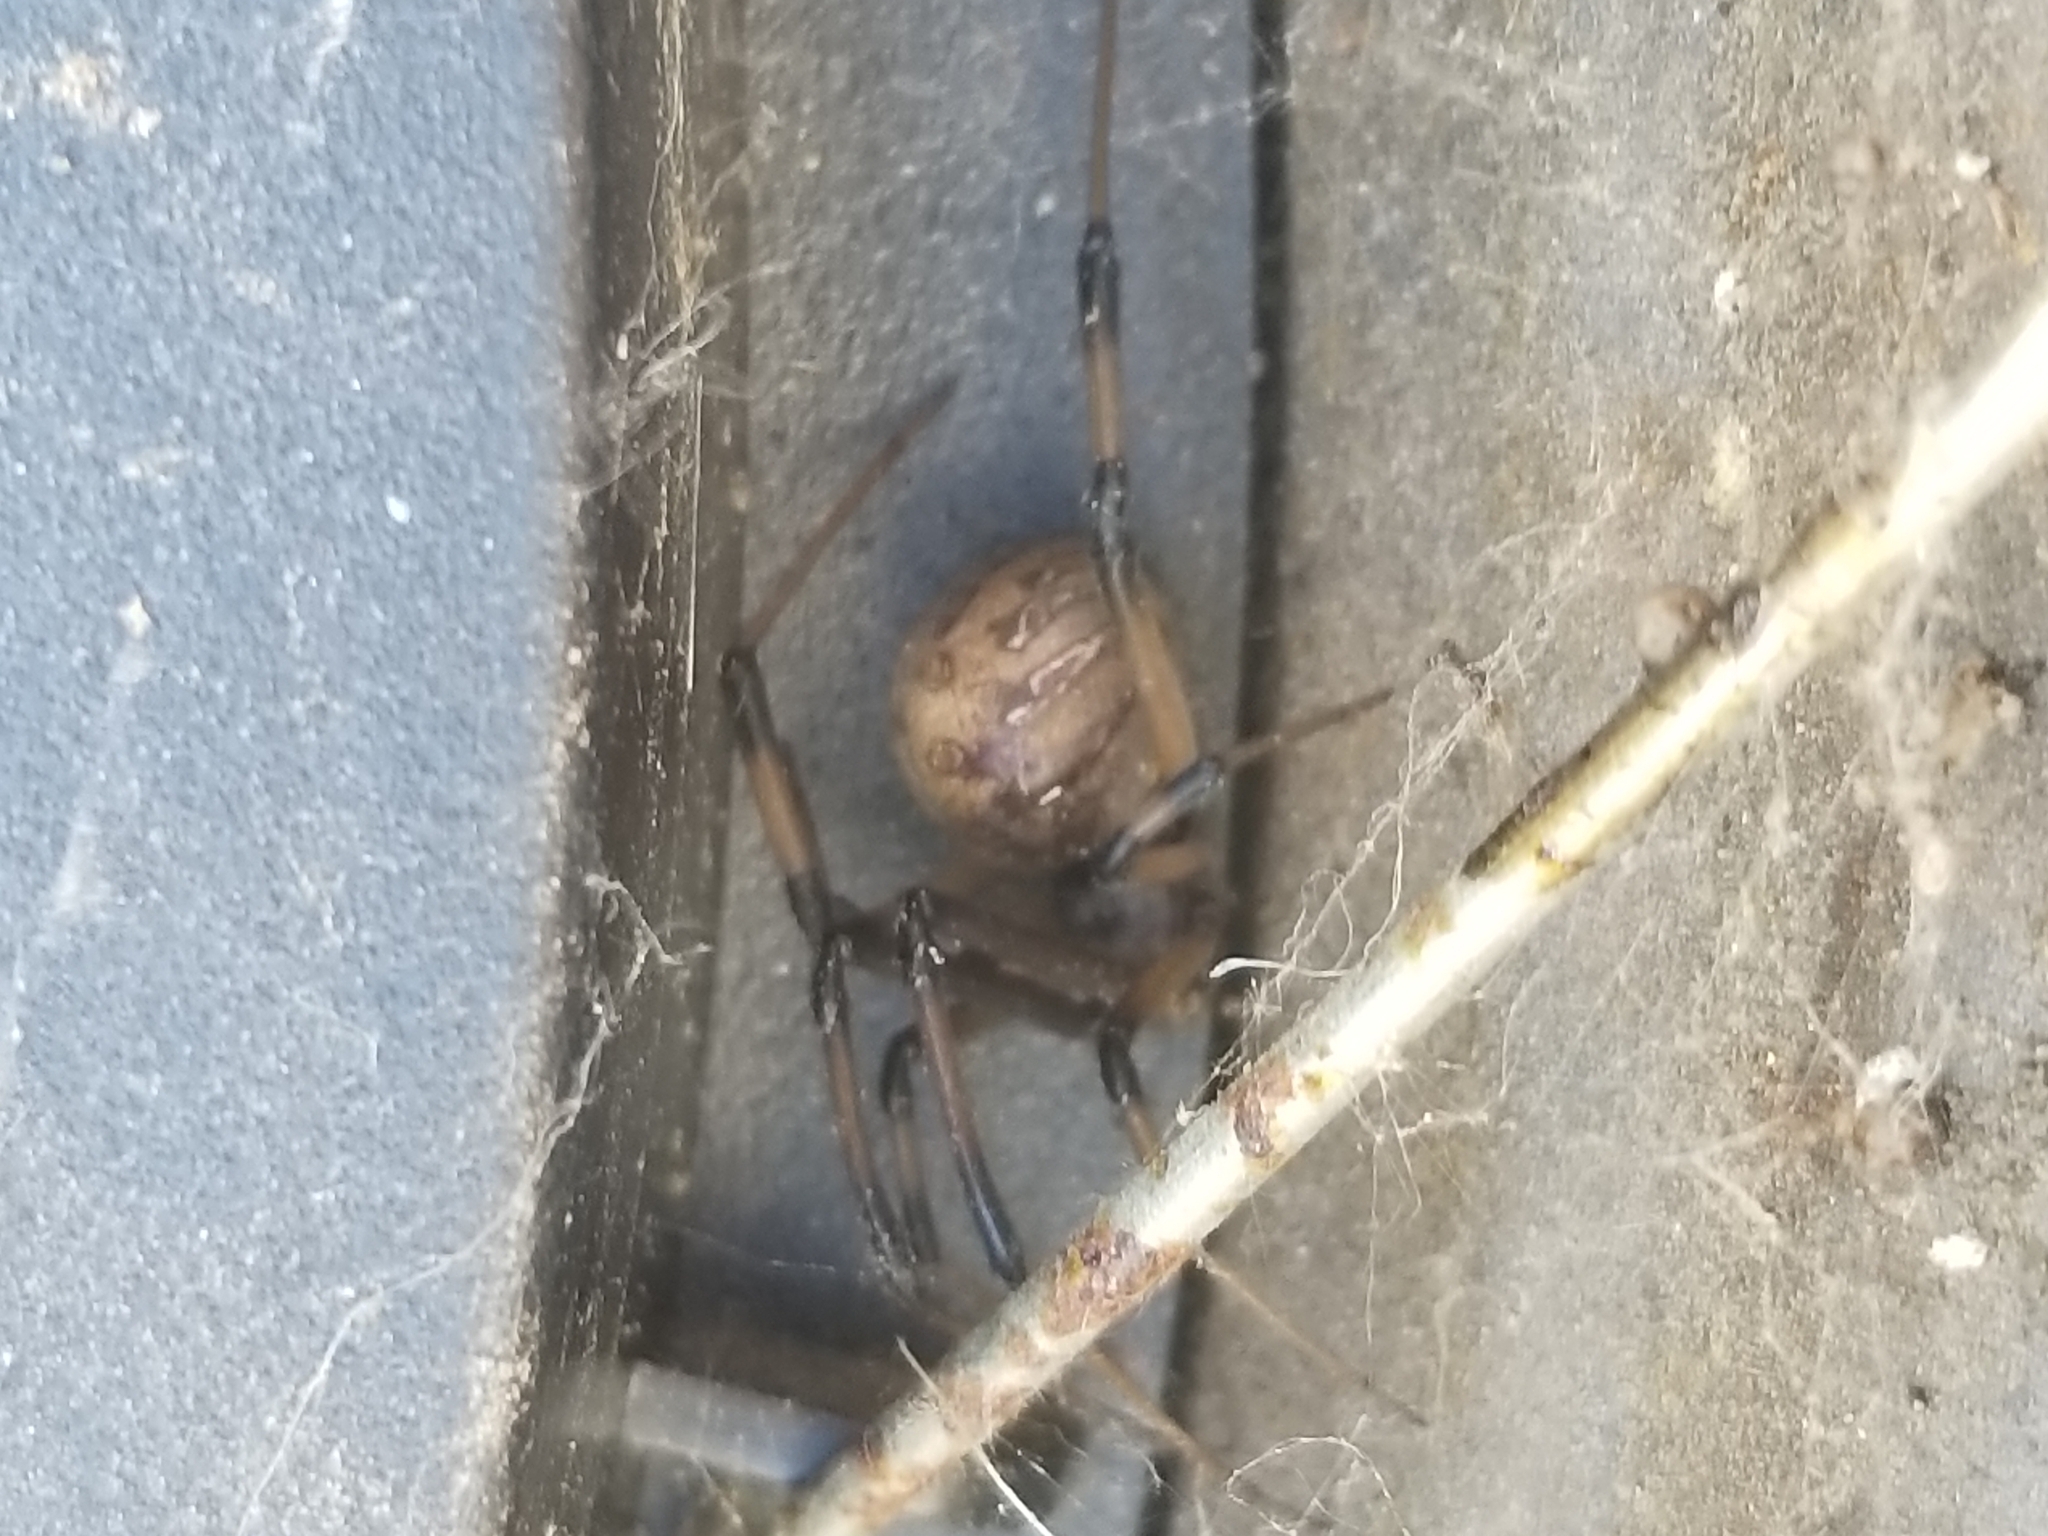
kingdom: Animalia
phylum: Arthropoda
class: Arachnida
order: Araneae
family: Theridiidae
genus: Latrodectus
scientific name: Latrodectus geometricus
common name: Brown widow spider
